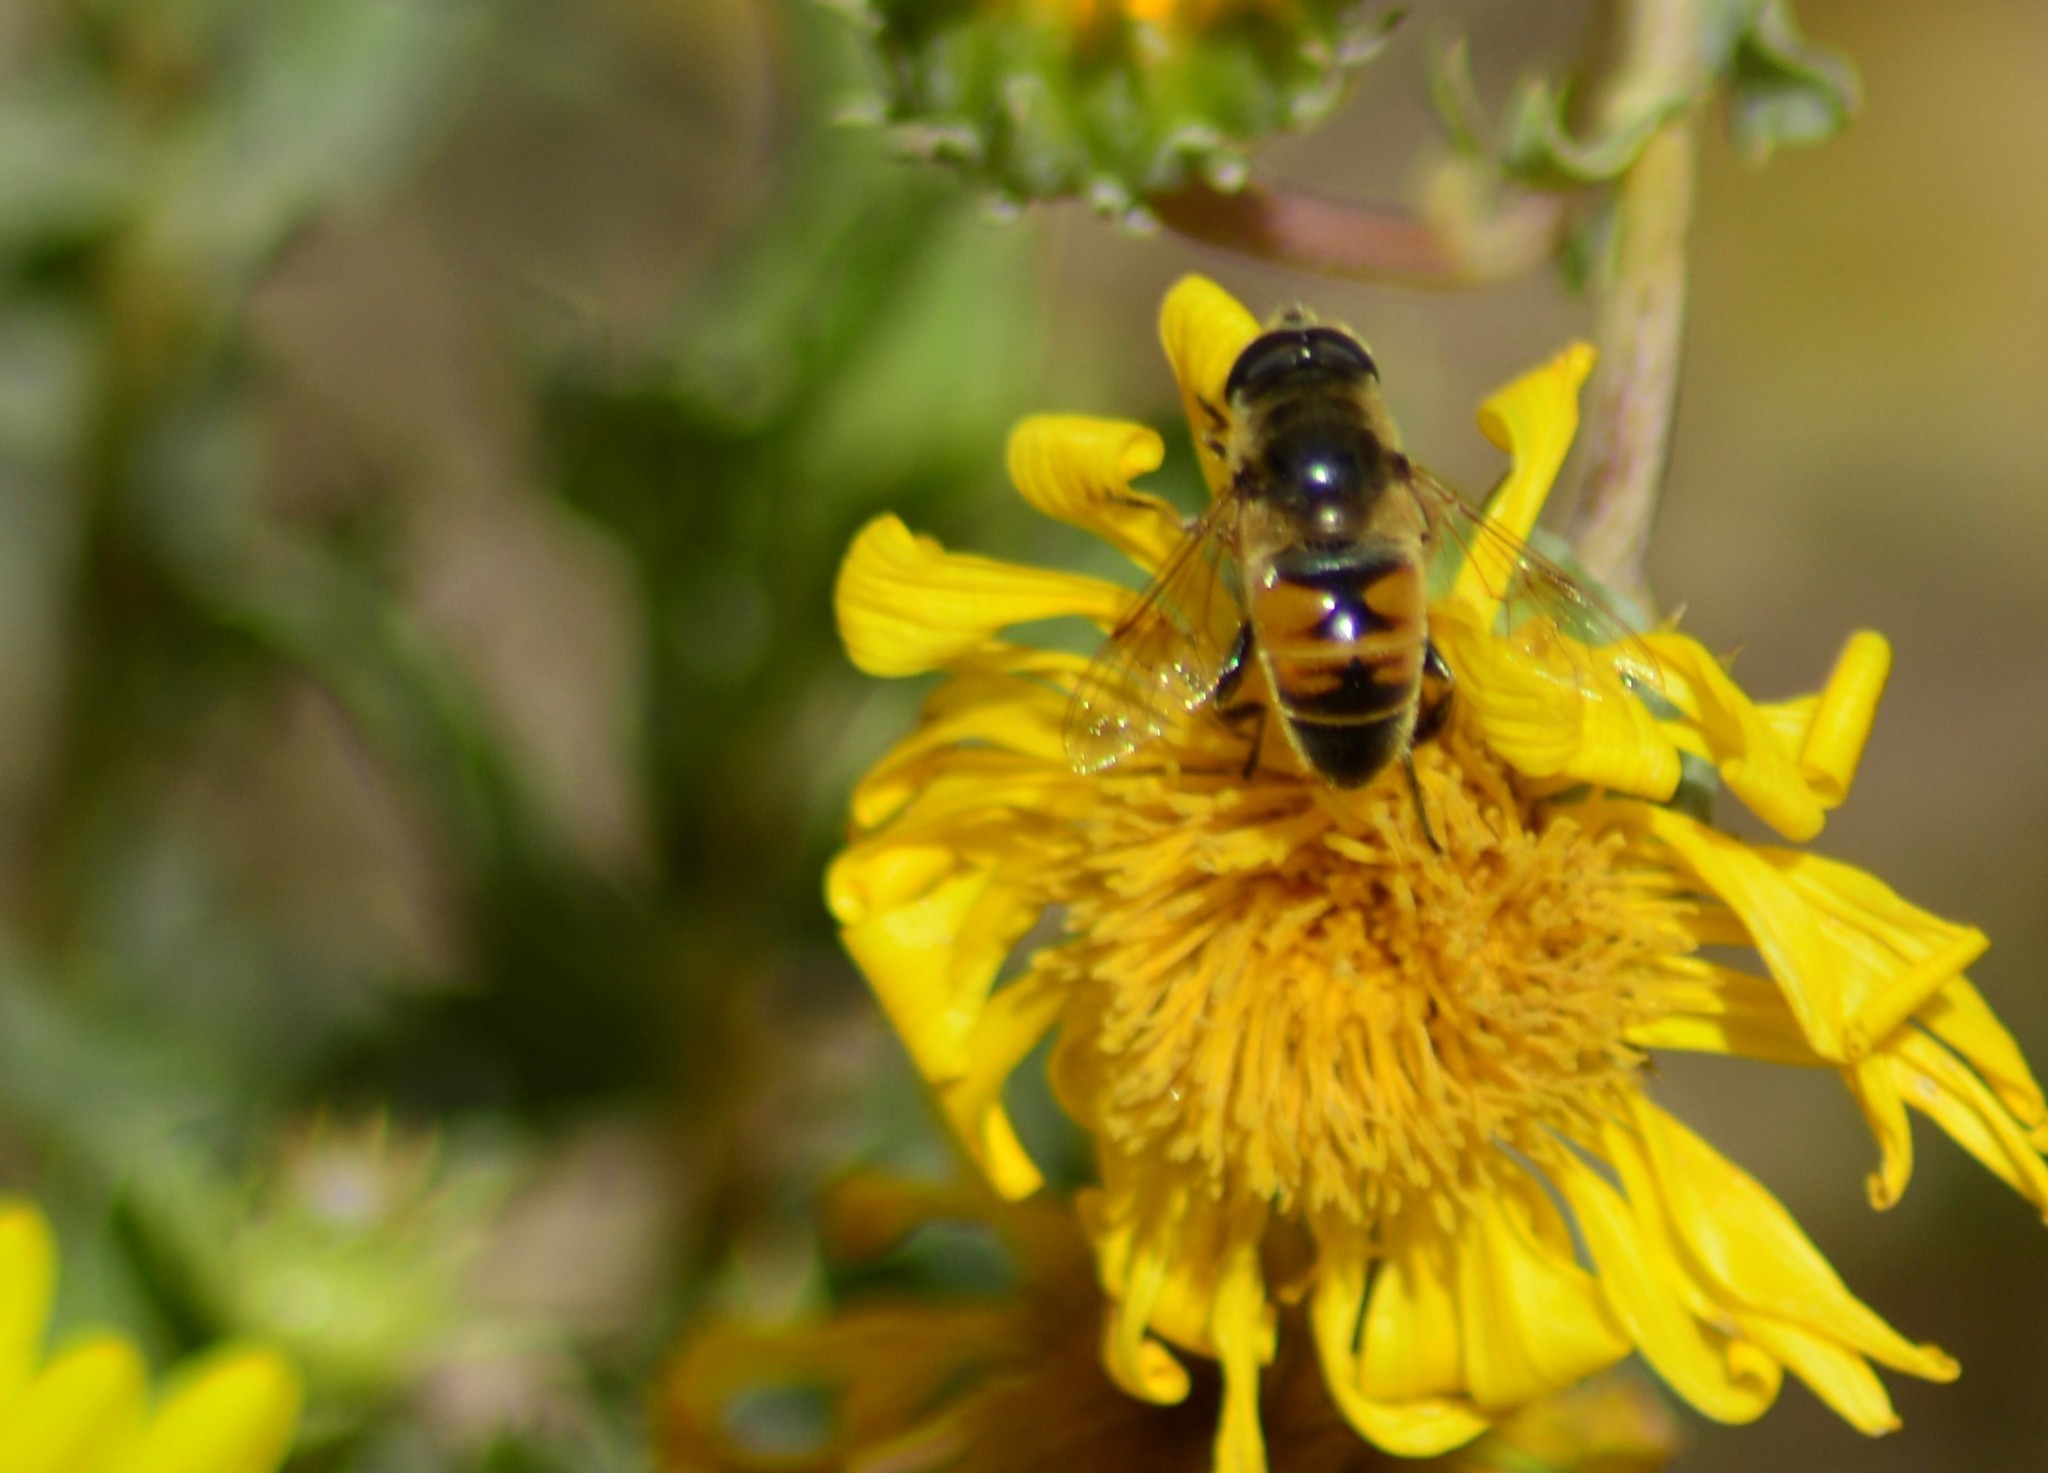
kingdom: Animalia
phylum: Arthropoda
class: Insecta
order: Diptera
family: Syrphidae
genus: Eristalis
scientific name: Eristalis tenax
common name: Drone fly
